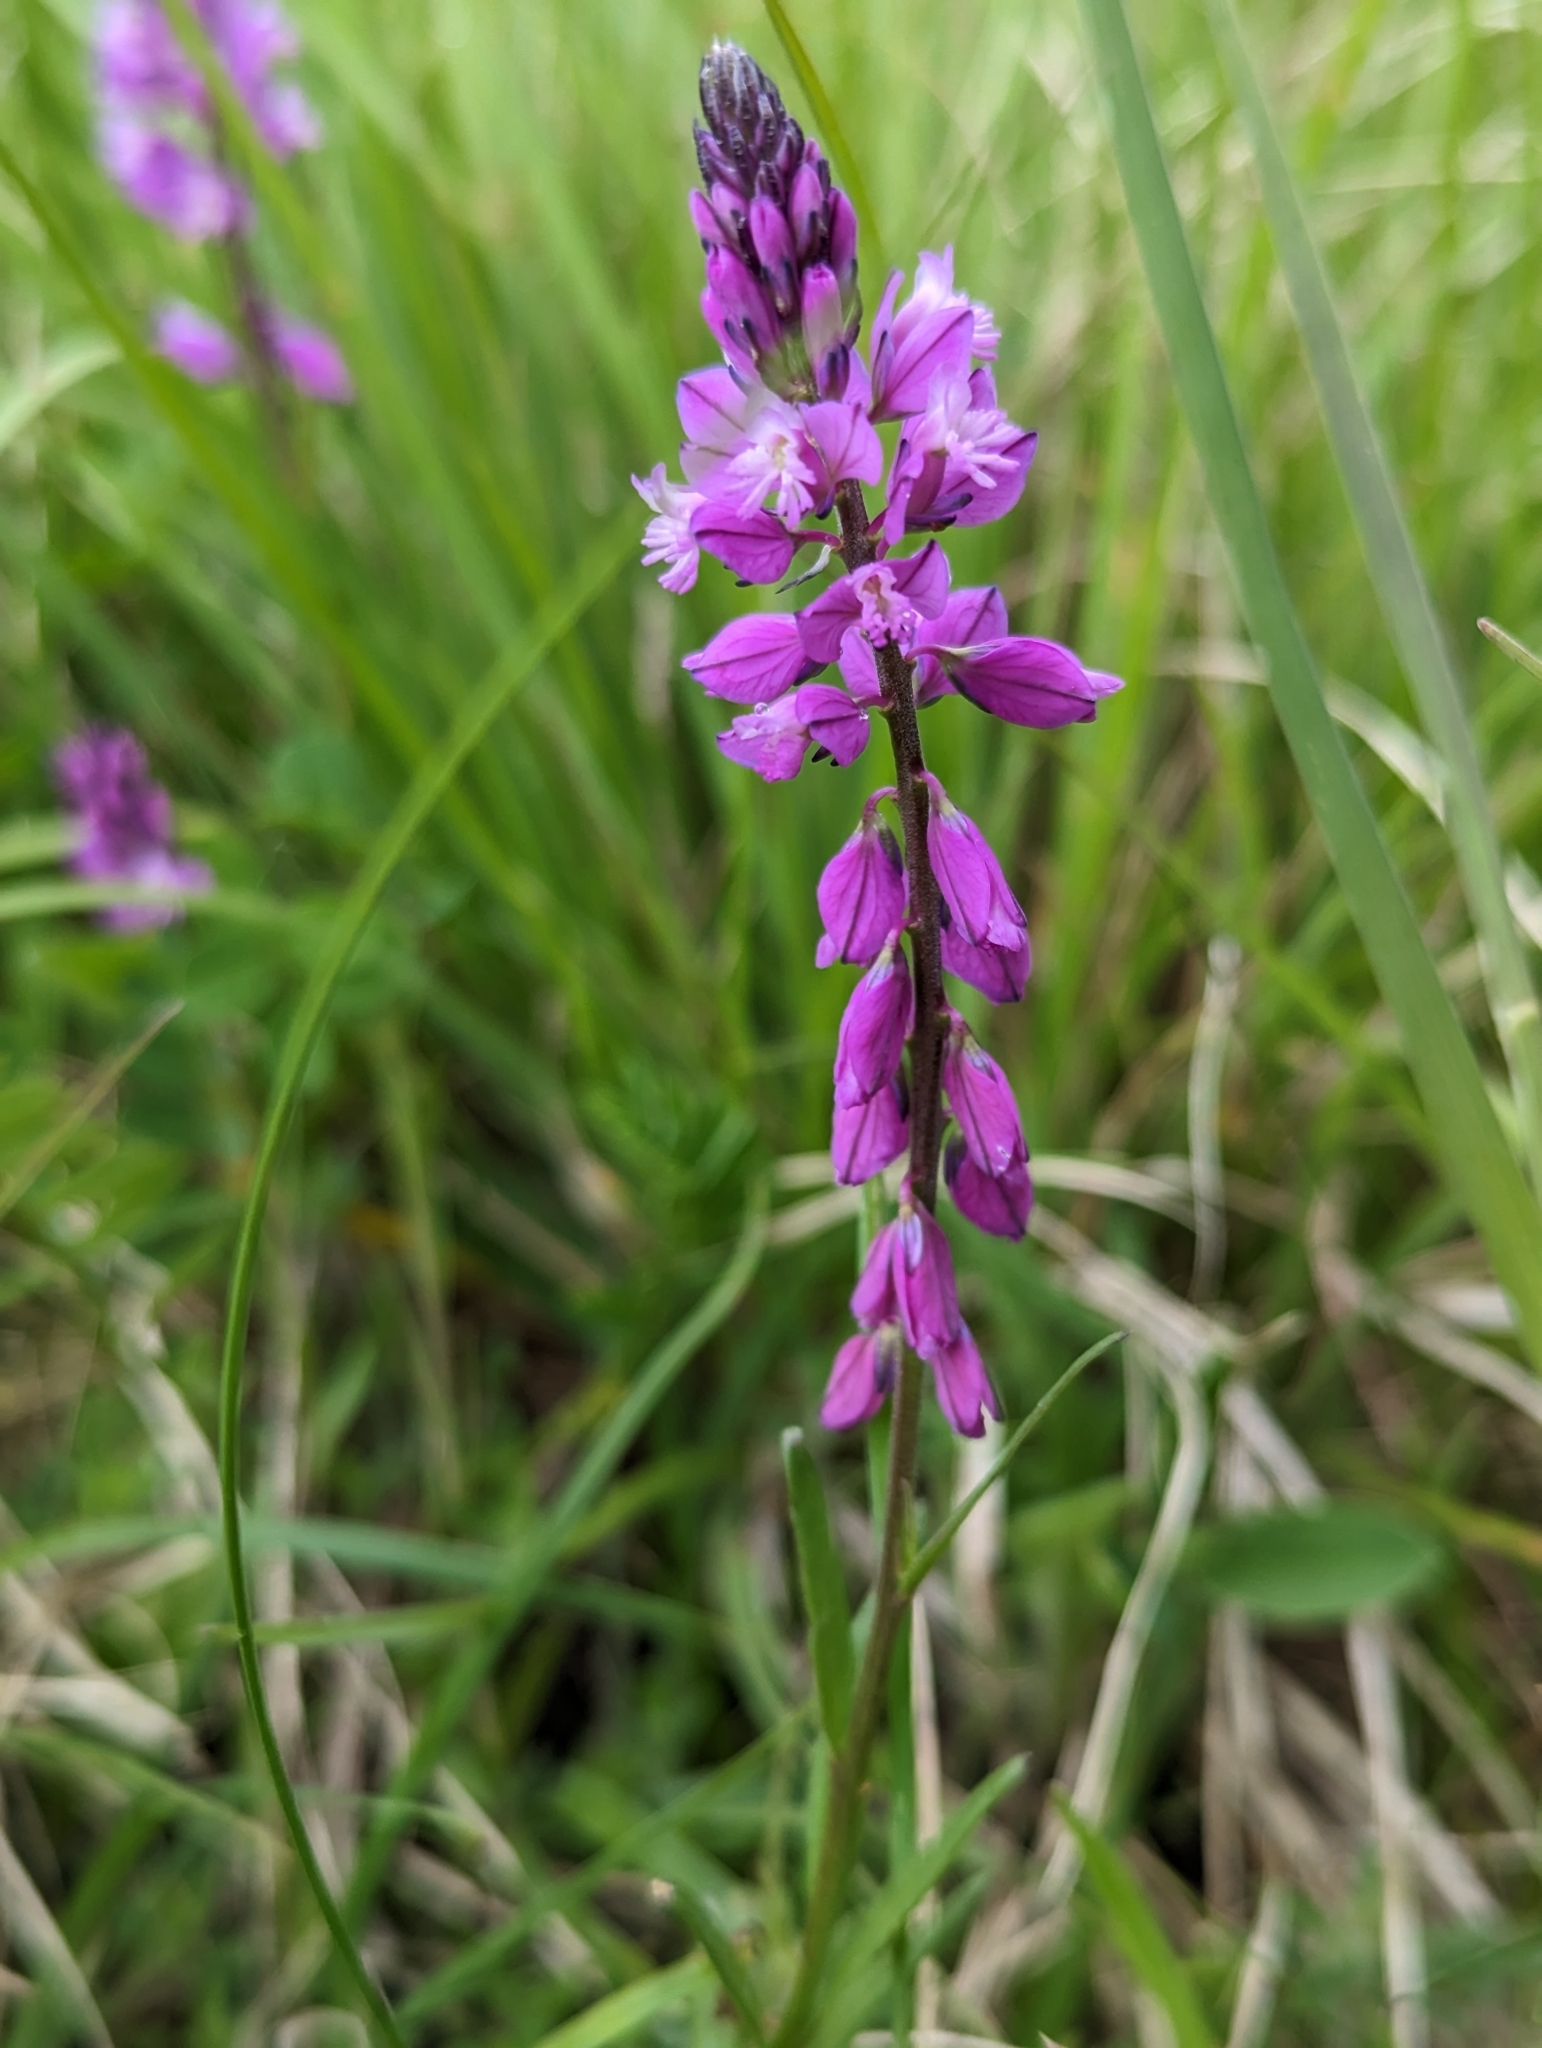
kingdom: Plantae
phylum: Tracheophyta
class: Magnoliopsida
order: Fabales
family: Polygalaceae
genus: Polygala
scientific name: Polygala comosa
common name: Tufted milkwort
